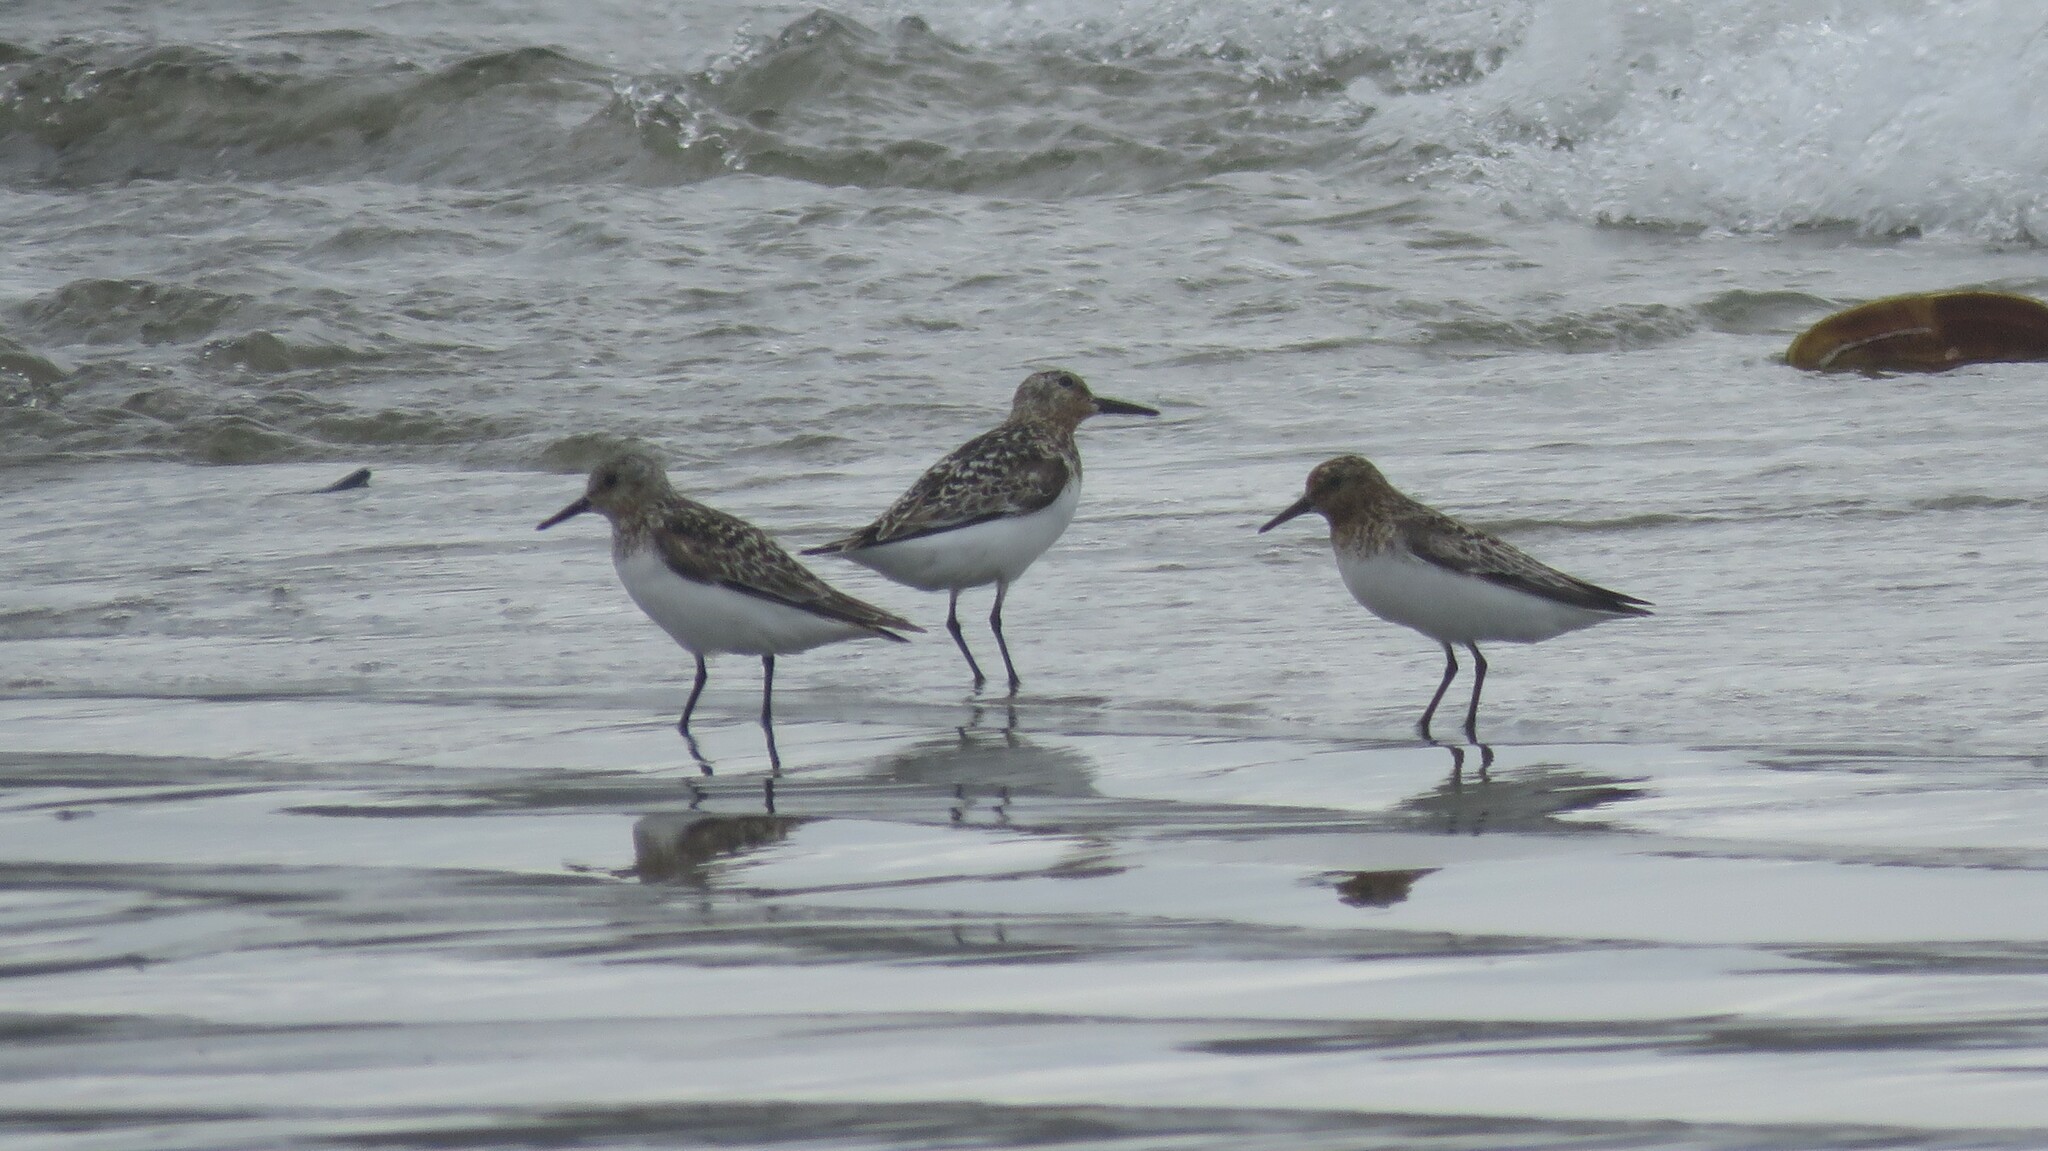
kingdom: Animalia
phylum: Chordata
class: Aves
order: Charadriiformes
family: Scolopacidae
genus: Calidris
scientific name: Calidris alba
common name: Sanderling
